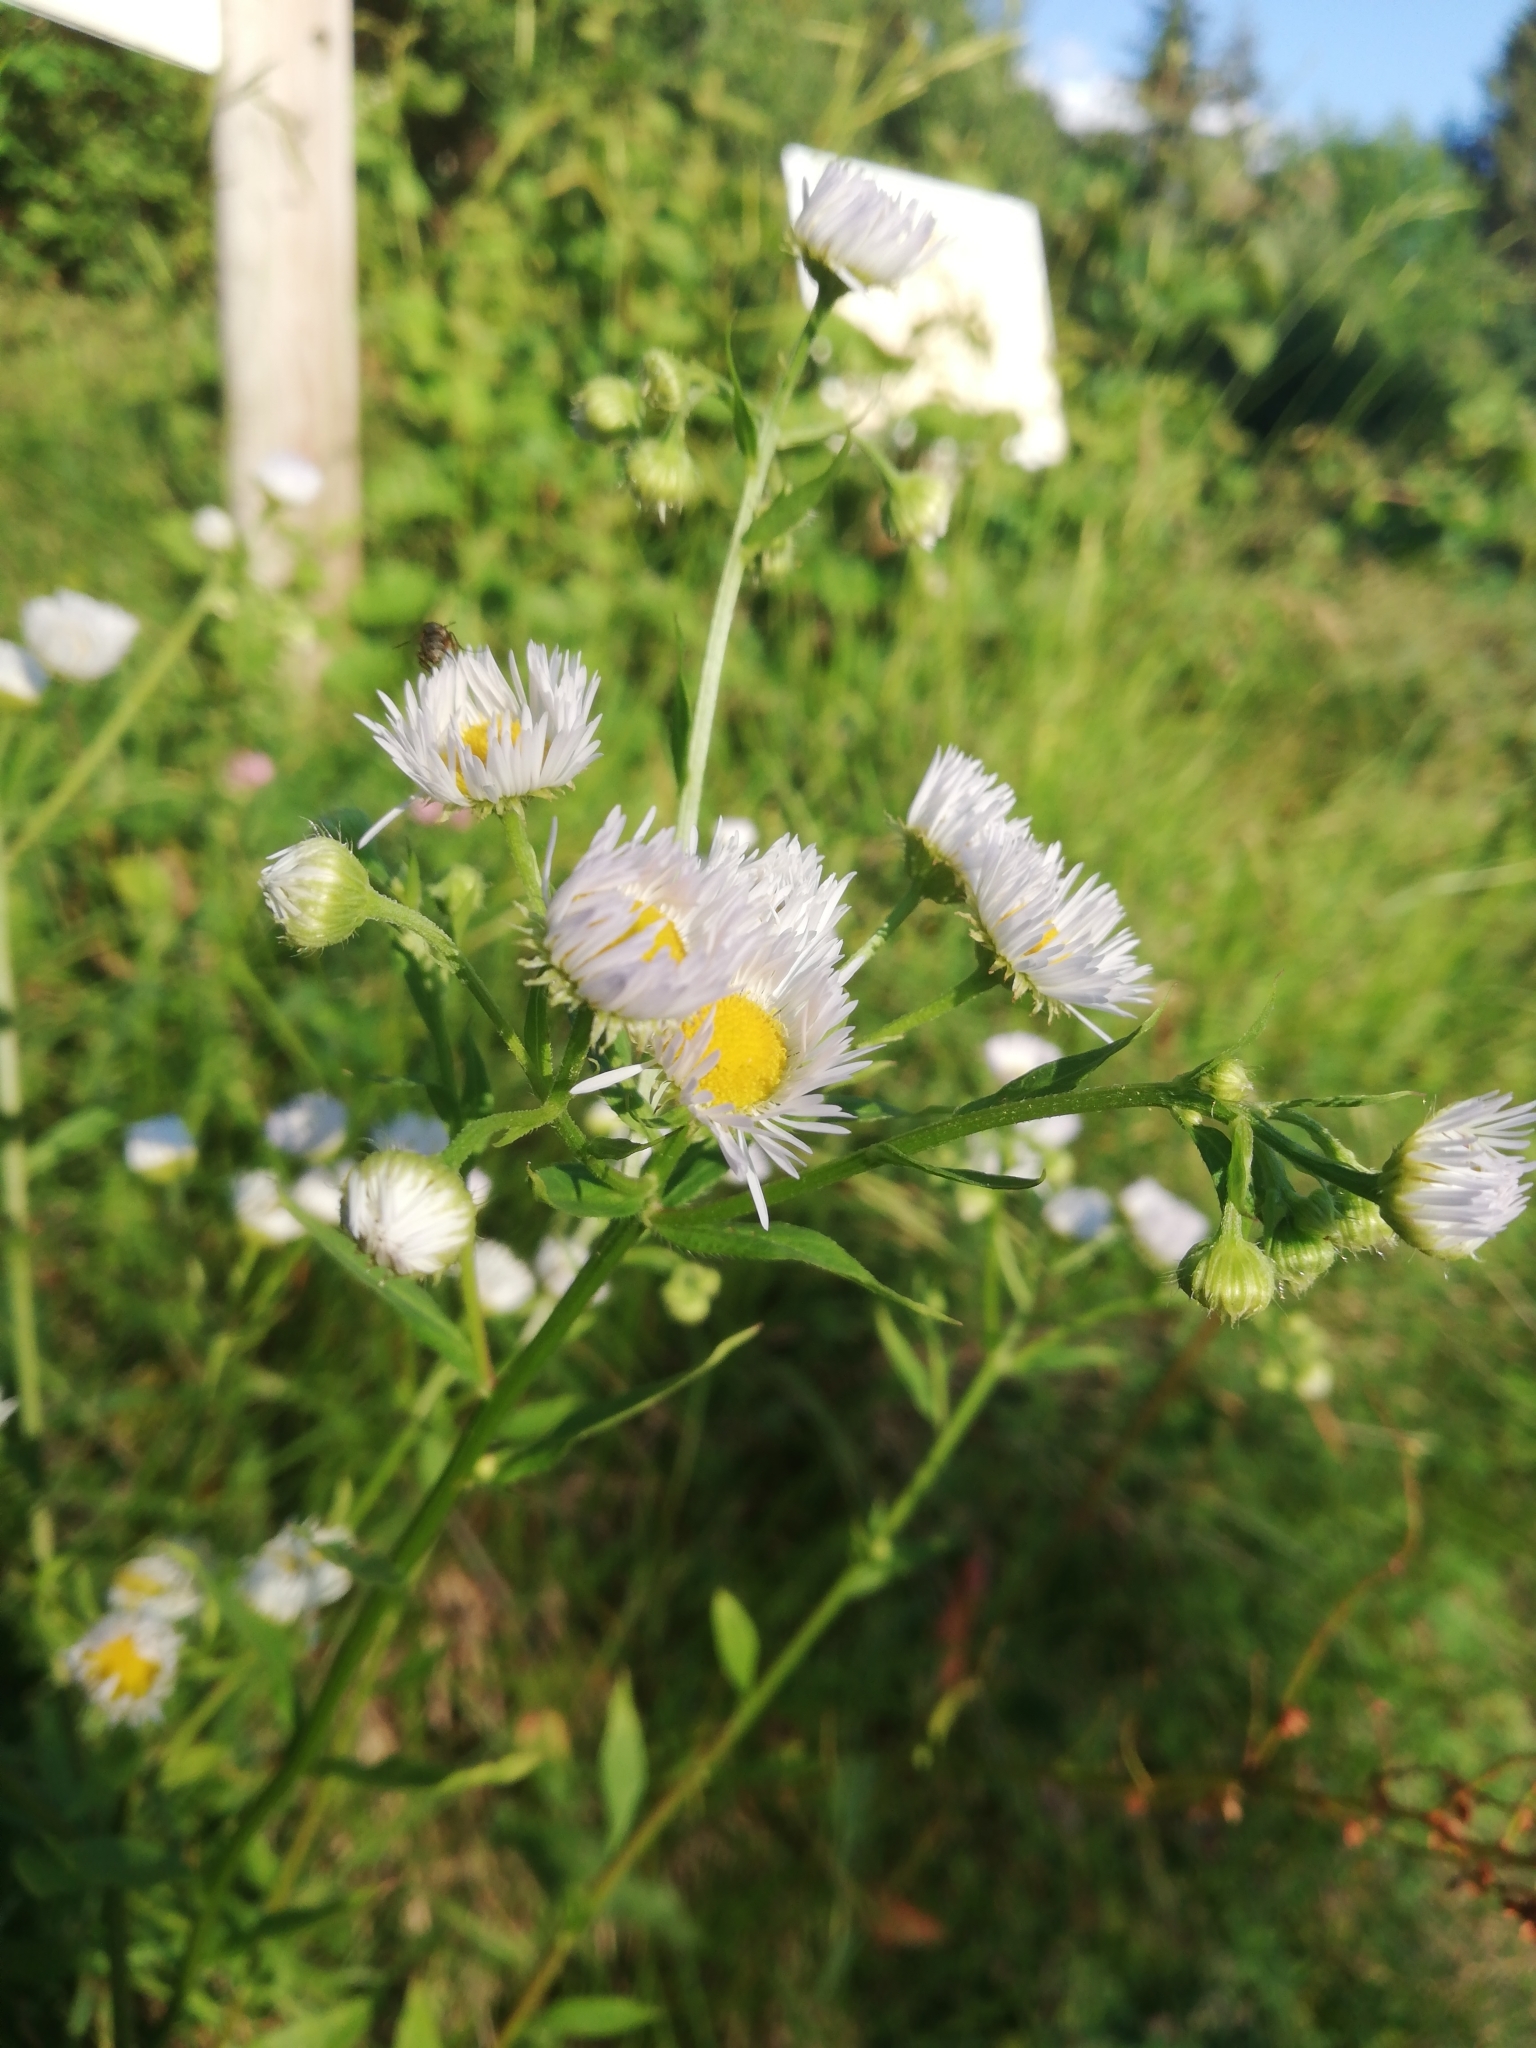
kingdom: Plantae
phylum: Tracheophyta
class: Magnoliopsida
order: Asterales
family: Asteraceae
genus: Erigeron
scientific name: Erigeron annuus
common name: Tall fleabane
